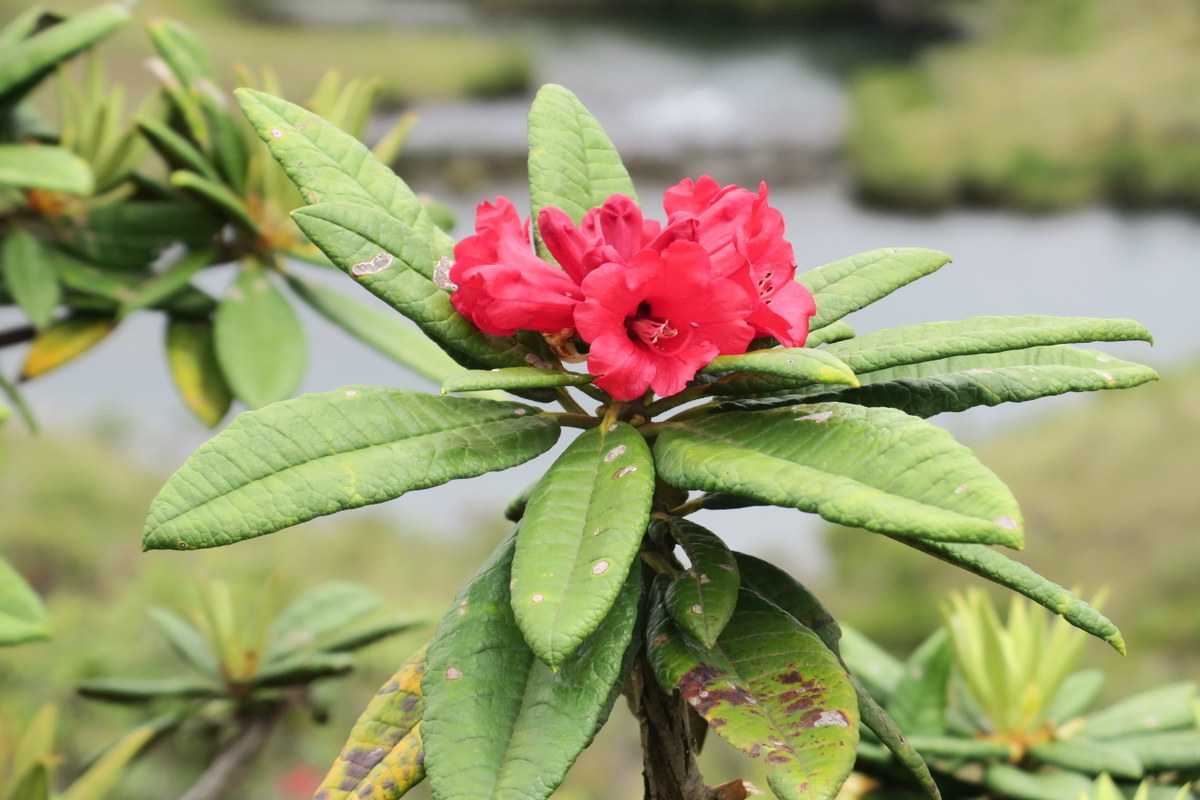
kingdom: Plantae
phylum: Tracheophyta
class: Magnoliopsida
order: Ericales
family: Ericaceae
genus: Rhododendron
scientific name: Rhododendron arboreum
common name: Tree rhododendron
